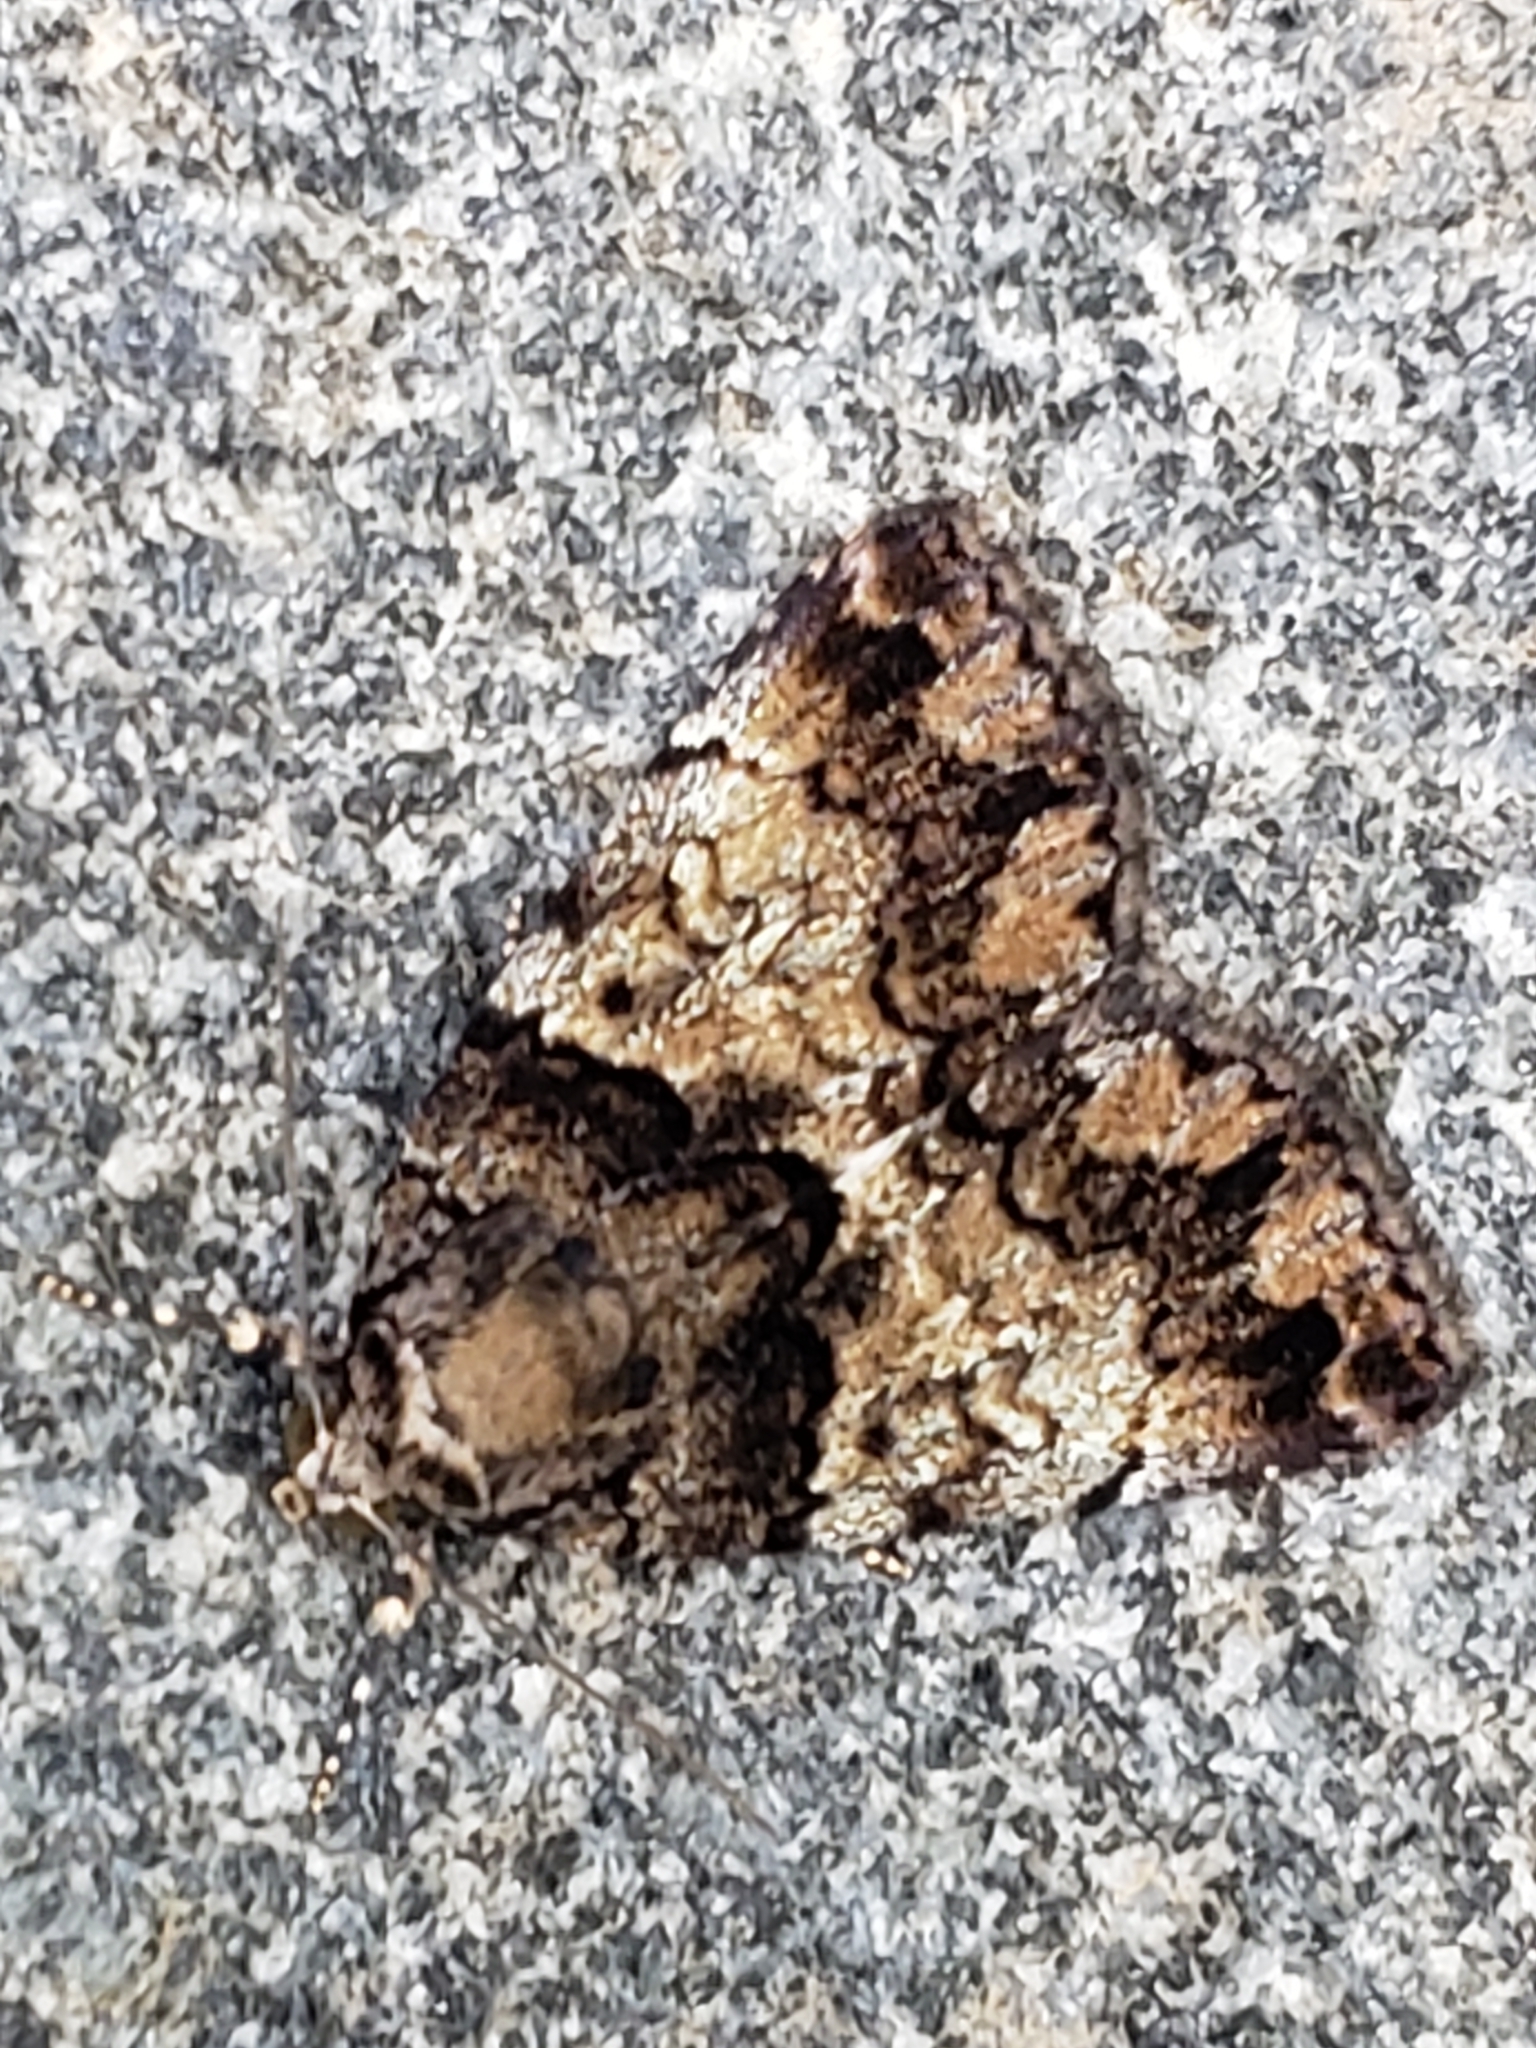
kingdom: Animalia
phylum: Arthropoda
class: Insecta
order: Lepidoptera
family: Erebidae
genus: Allotria
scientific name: Allotria elonympha
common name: False underwing
